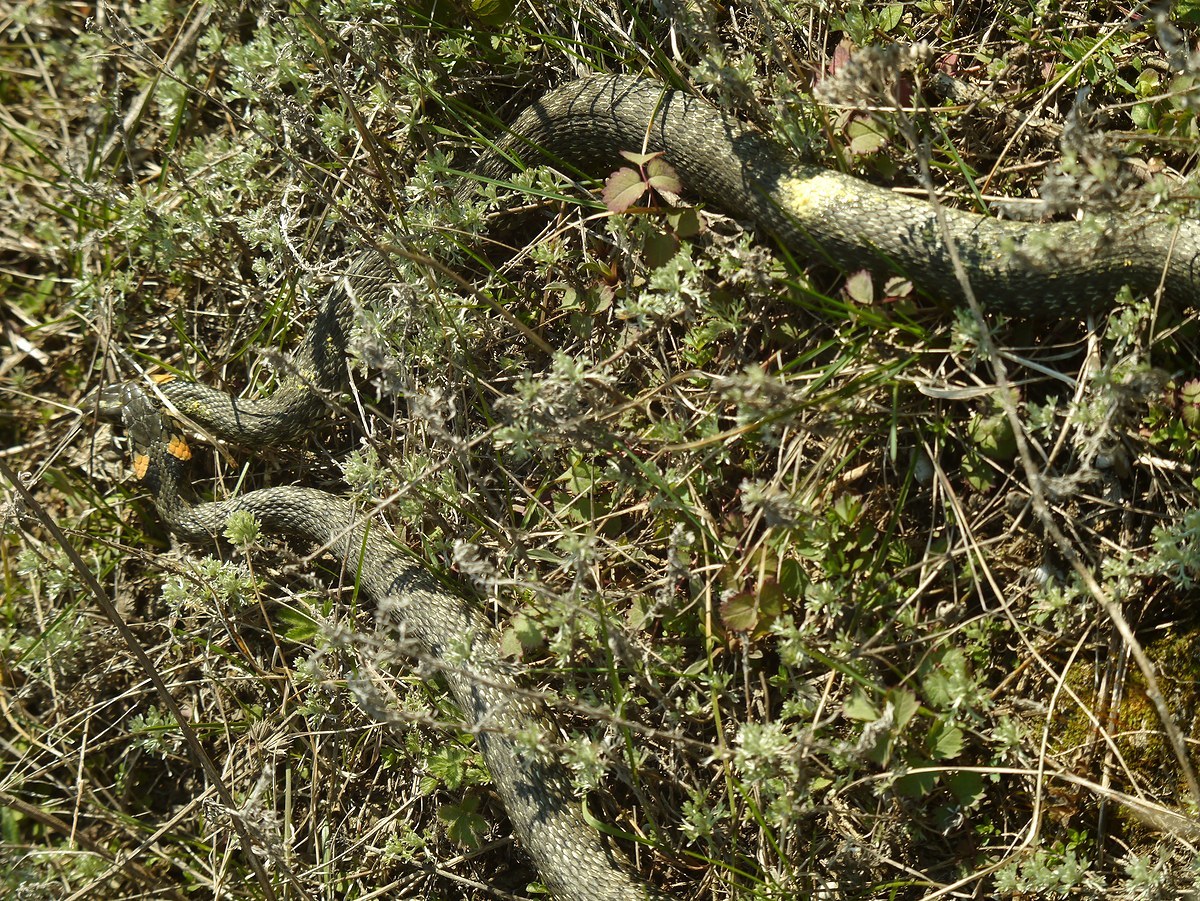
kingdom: Animalia
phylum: Chordata
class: Squamata
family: Colubridae
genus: Natrix
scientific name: Natrix natrix
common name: Grass snake
